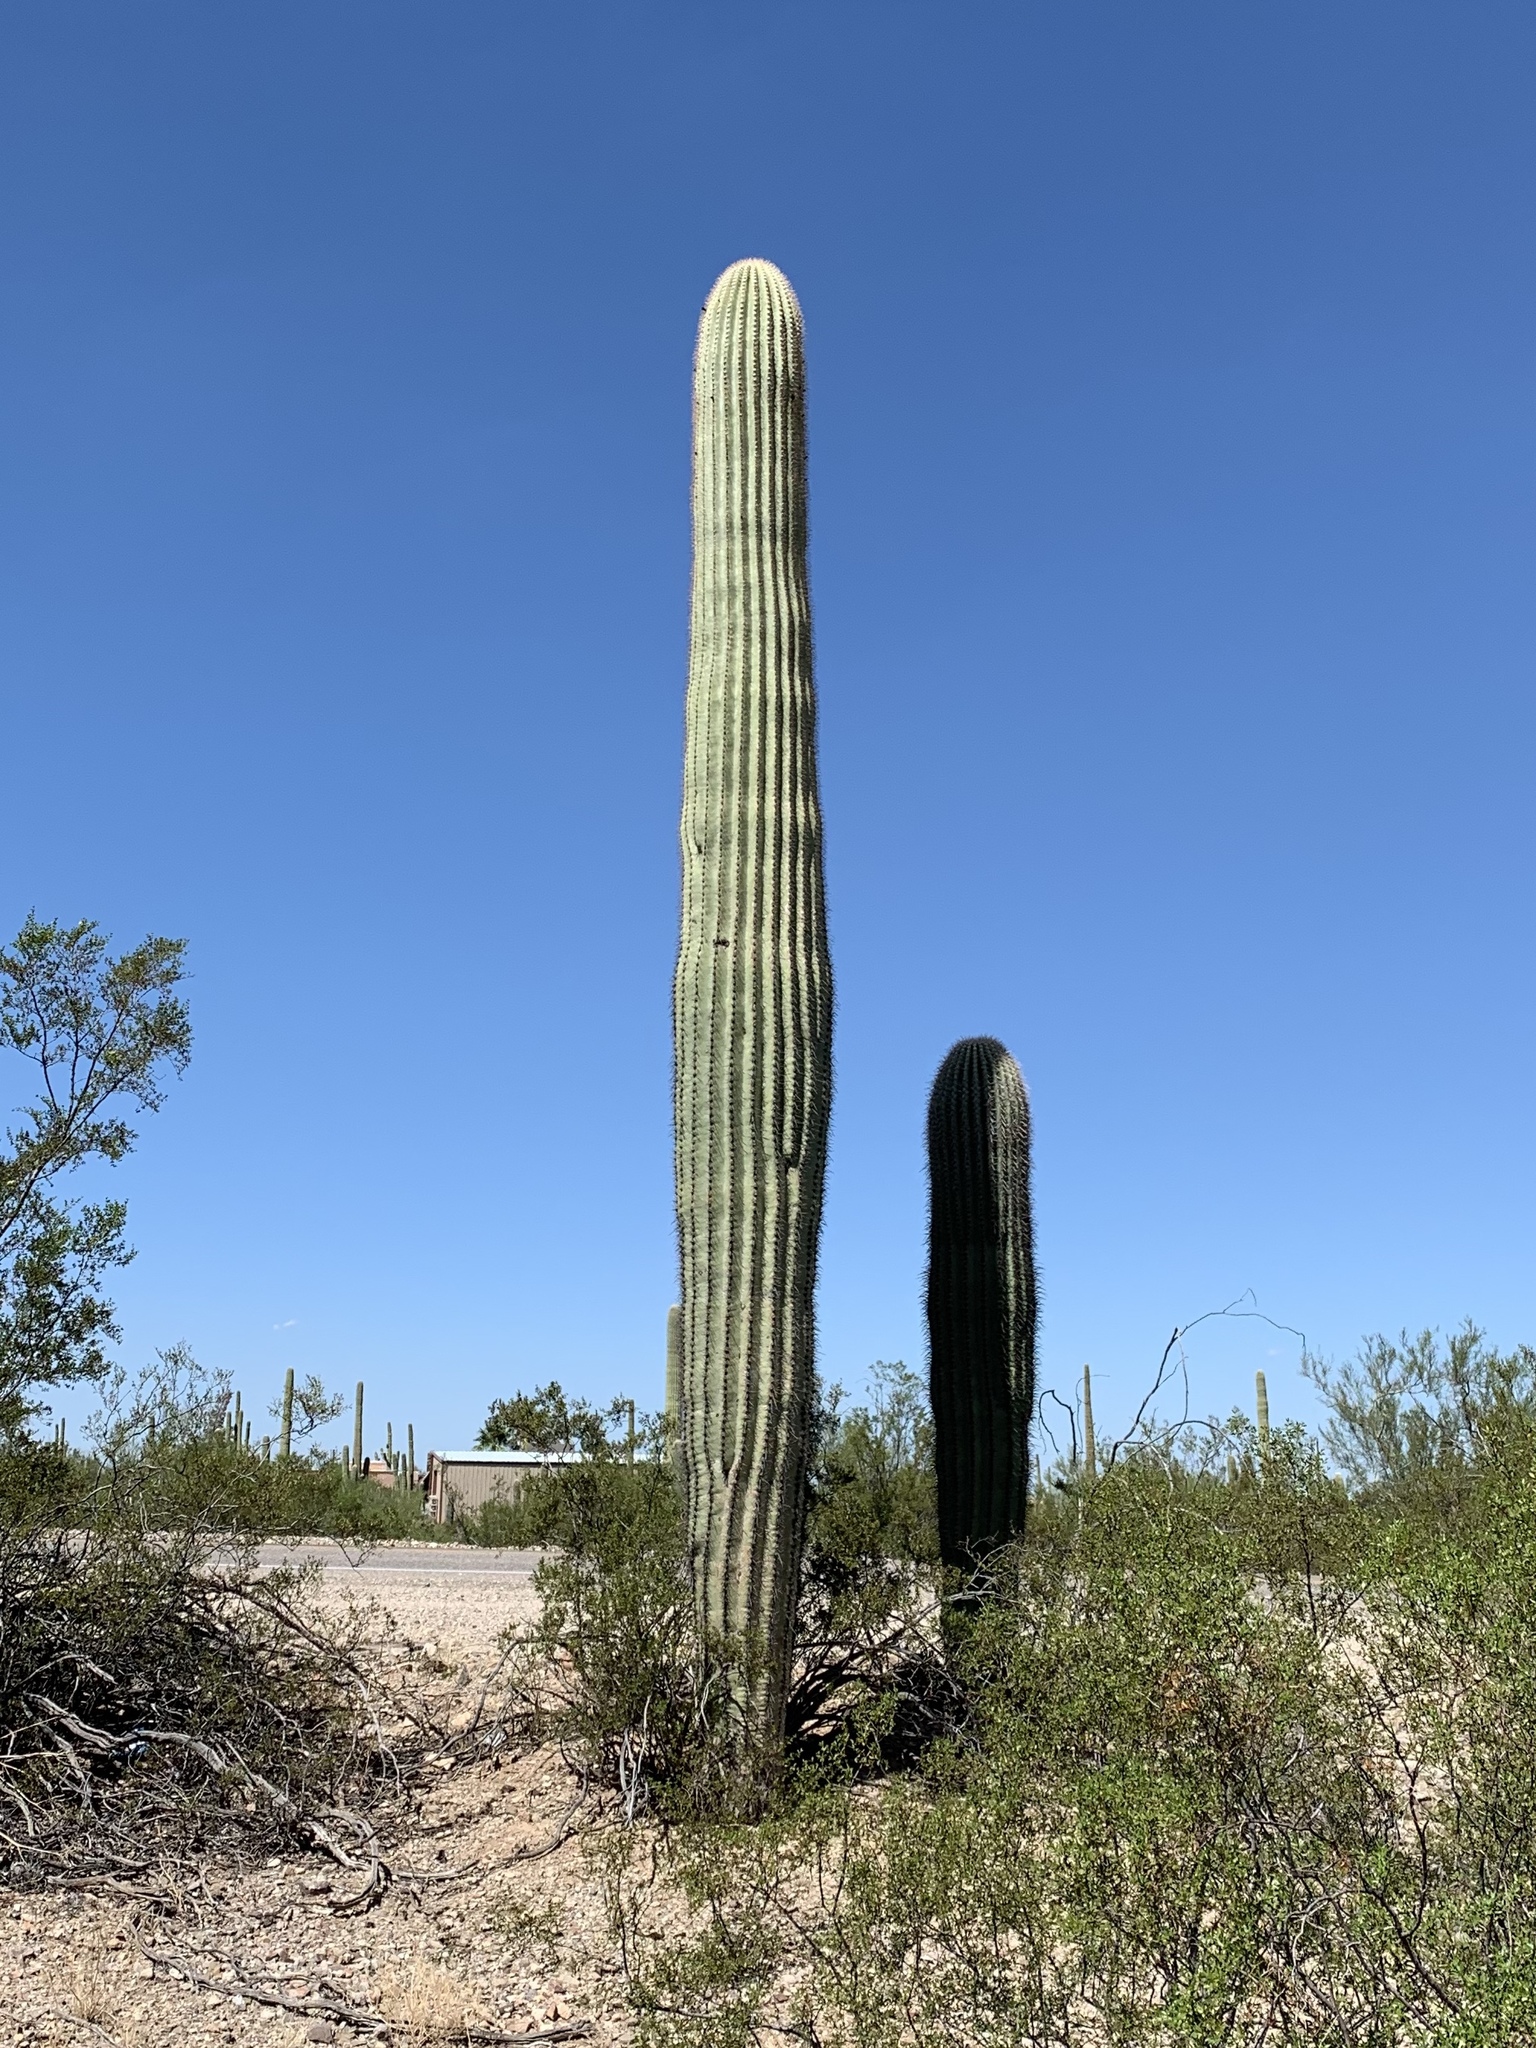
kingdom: Plantae
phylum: Tracheophyta
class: Magnoliopsida
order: Caryophyllales
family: Cactaceae
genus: Carnegiea
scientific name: Carnegiea gigantea
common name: Saguaro
